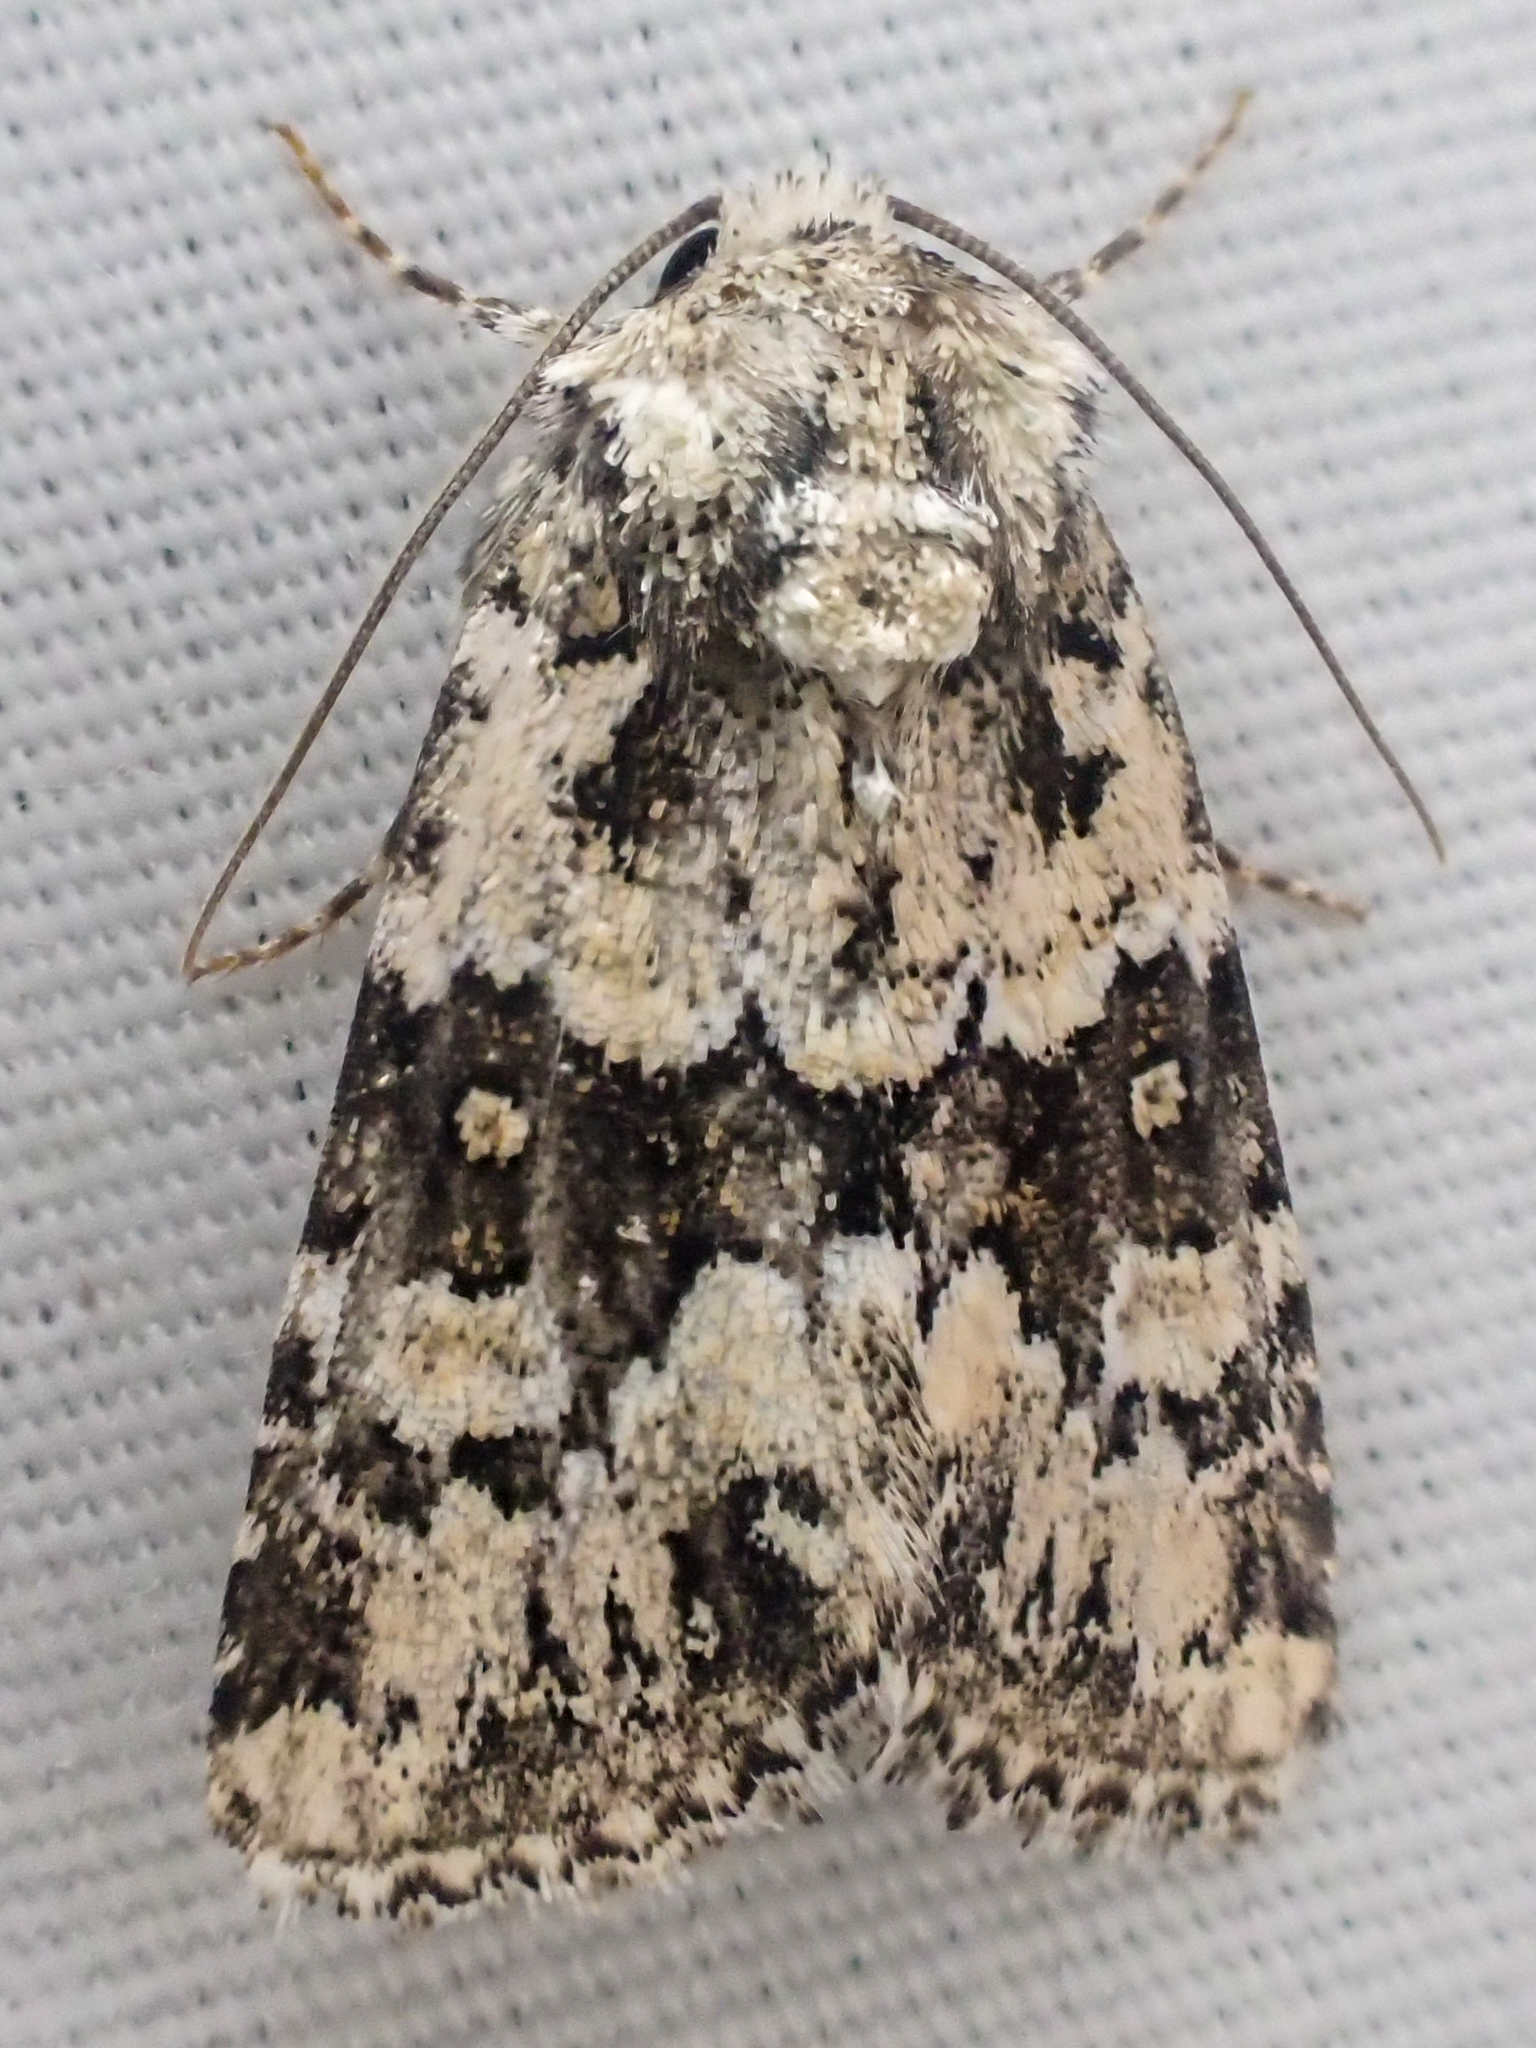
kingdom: Animalia
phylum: Arthropoda
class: Insecta
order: Lepidoptera
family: Noctuidae
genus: Lacinipolia
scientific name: Lacinipolia strigicollis
